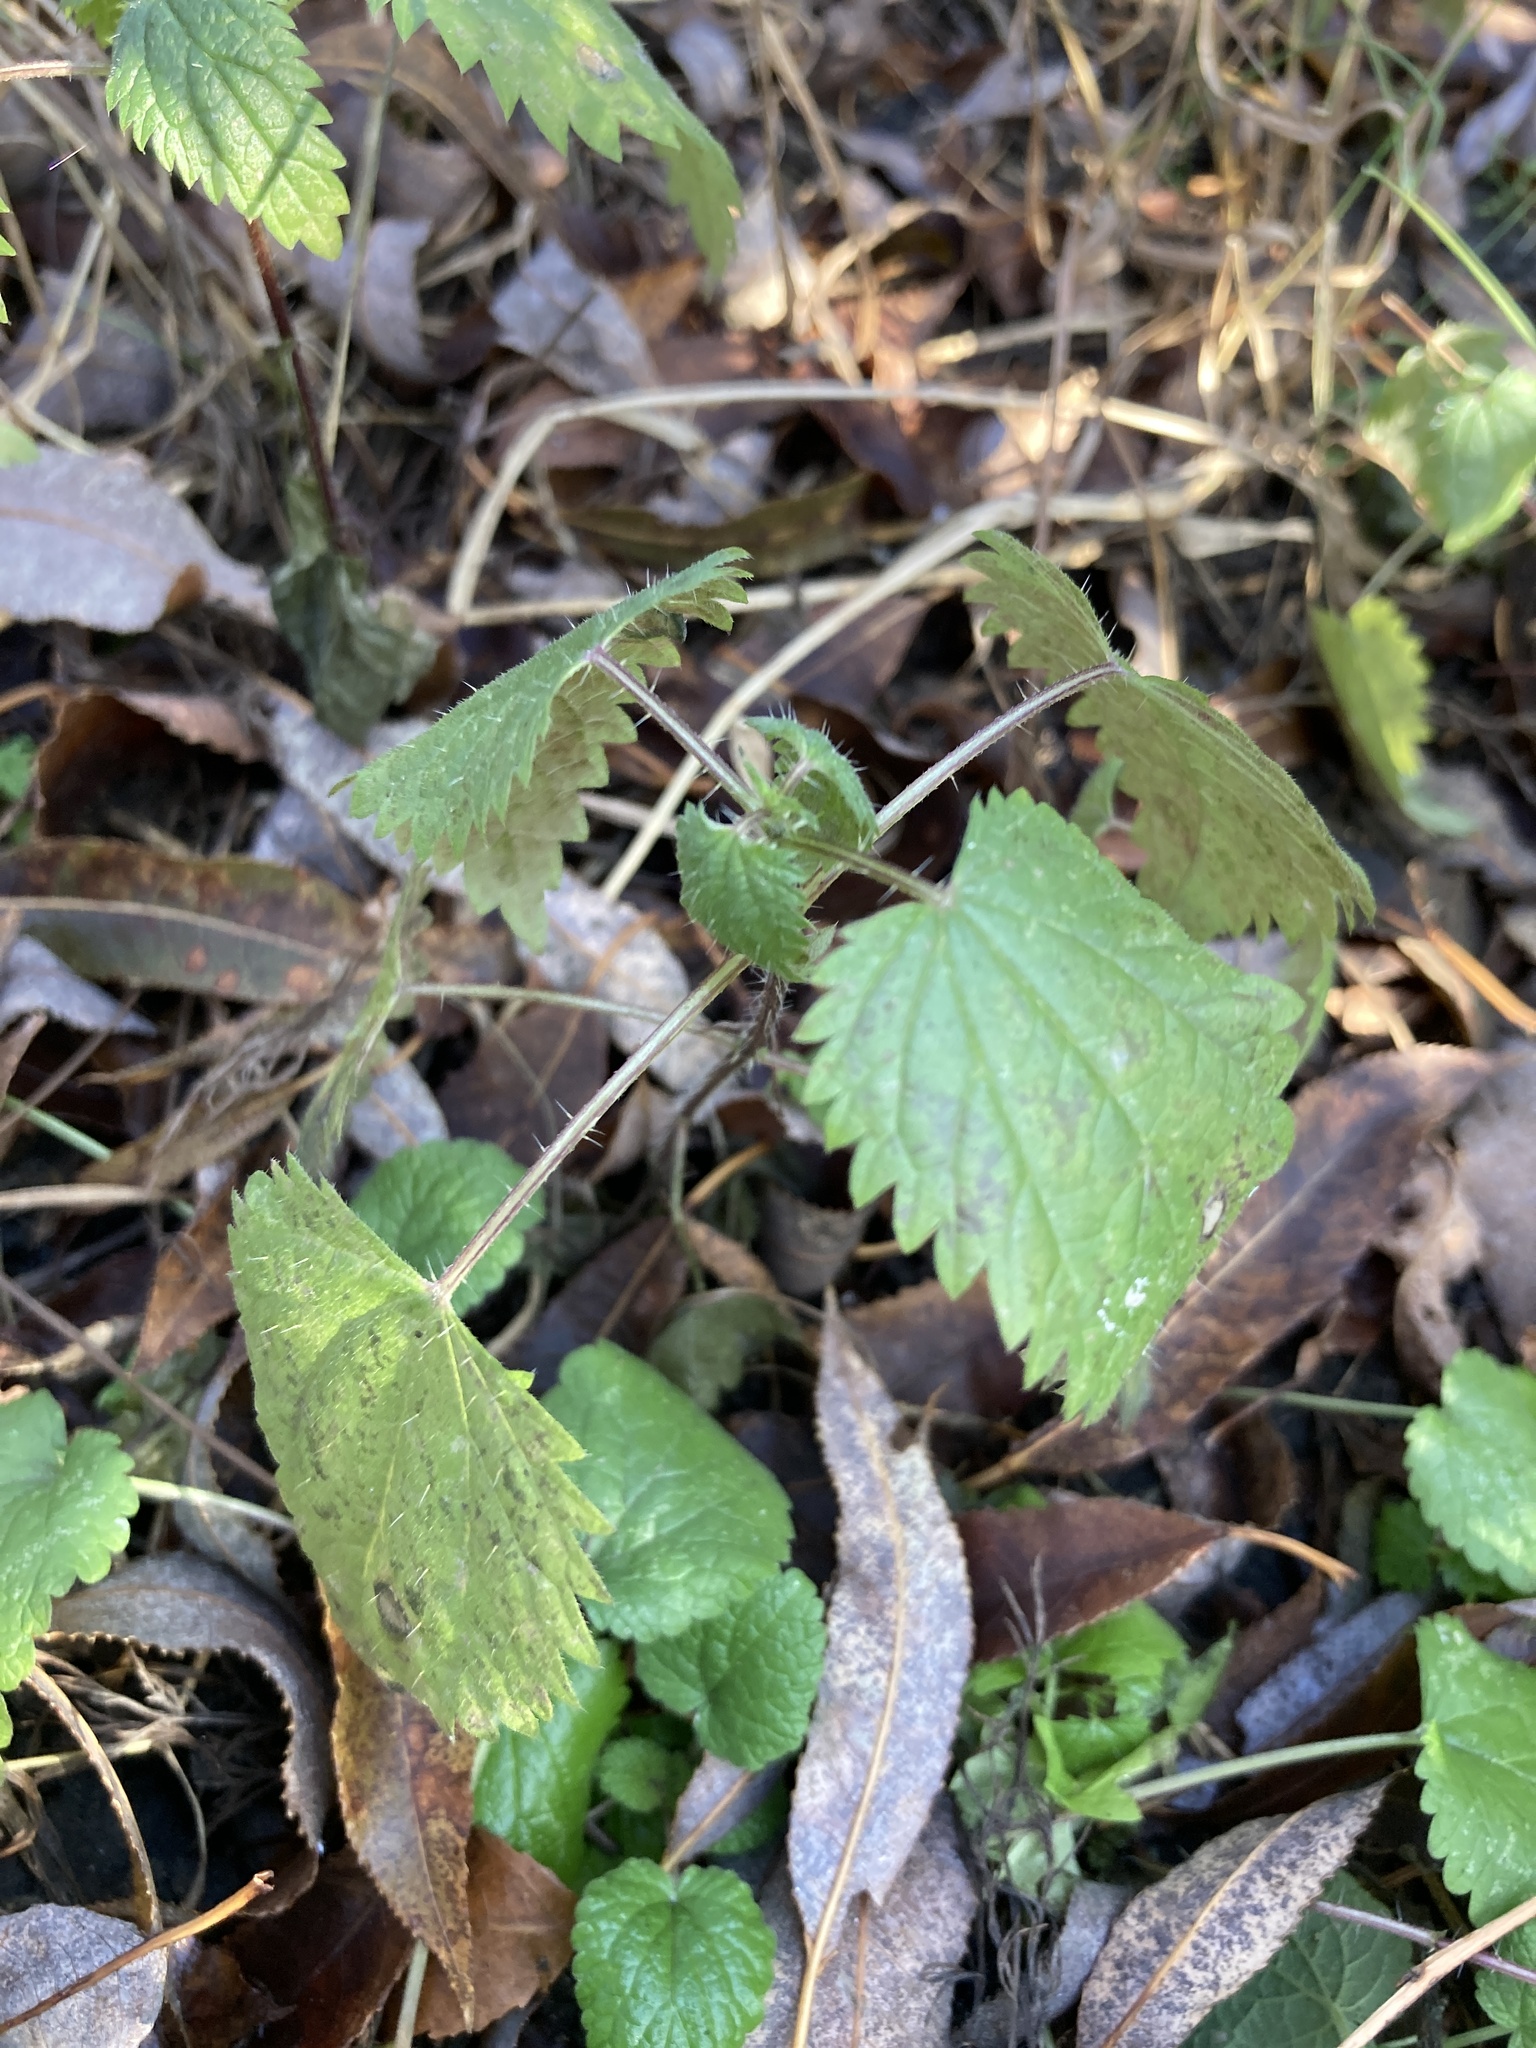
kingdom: Plantae
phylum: Tracheophyta
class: Magnoliopsida
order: Rosales
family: Urticaceae
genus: Urtica
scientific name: Urtica dioica
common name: Common nettle
